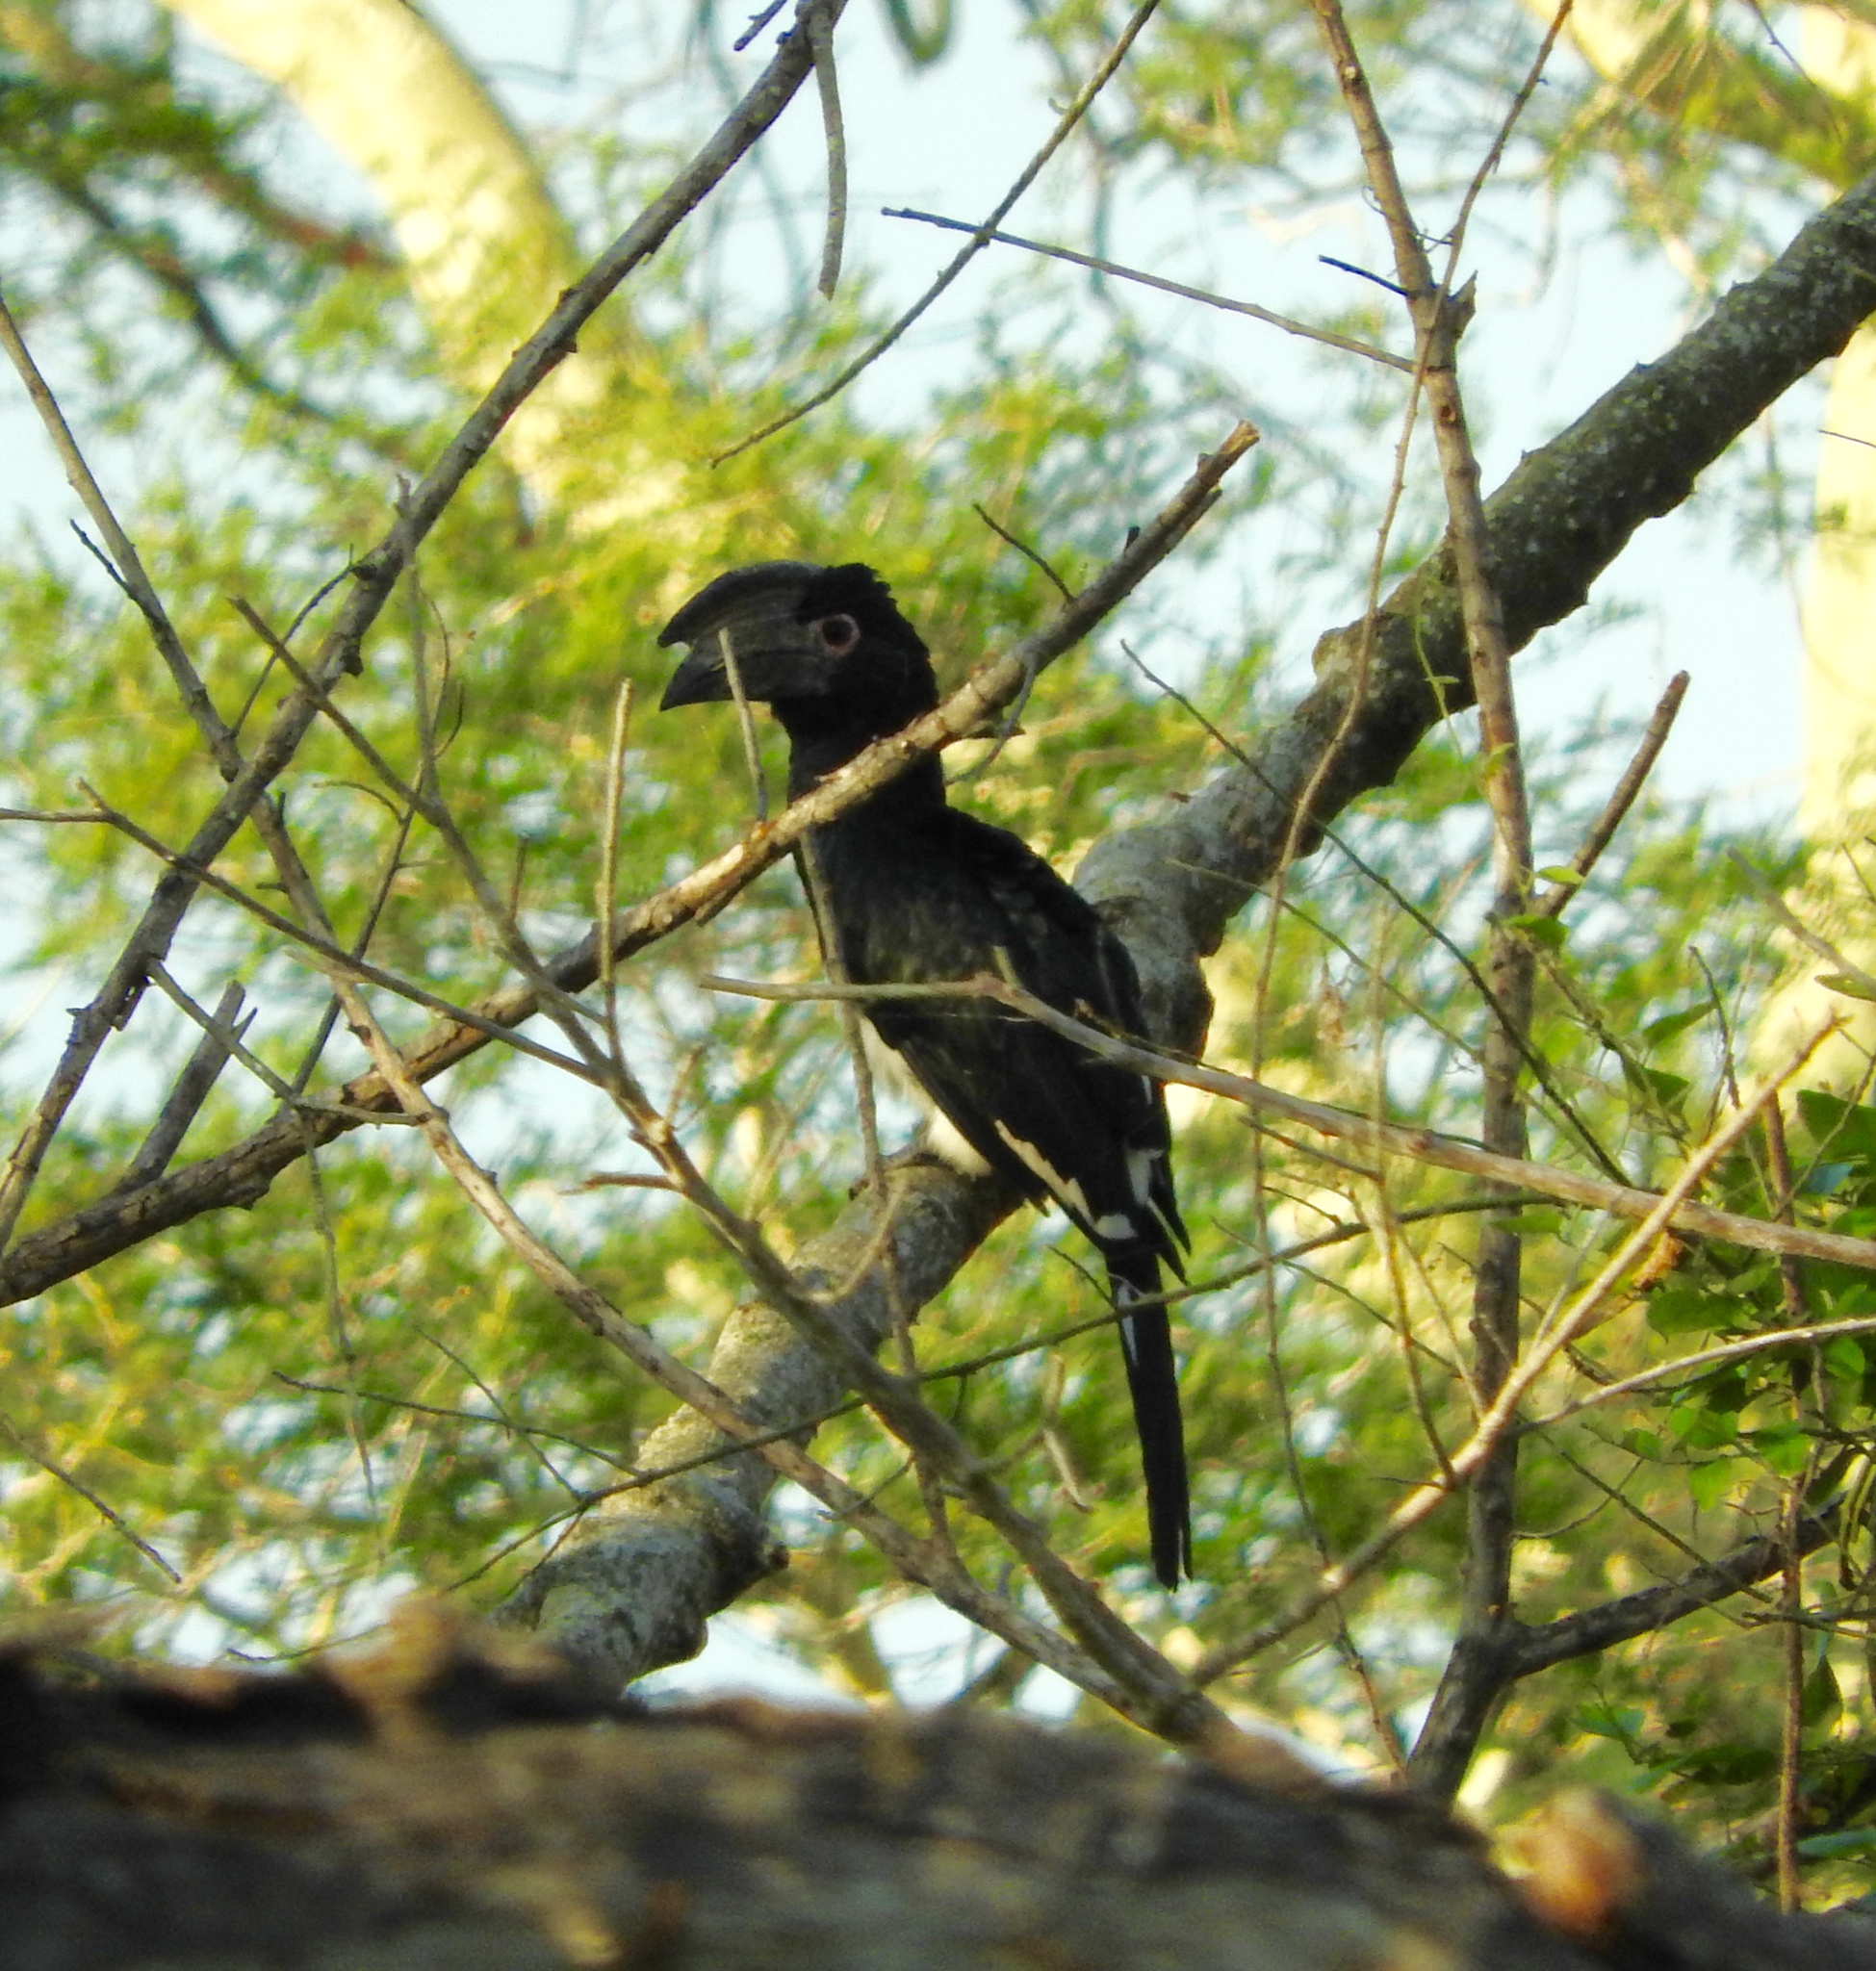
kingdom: Animalia
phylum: Chordata
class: Aves
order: Bucerotiformes
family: Bucerotidae
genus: Bycanistes
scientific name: Bycanistes bucinator
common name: Trumpeter hornbill
